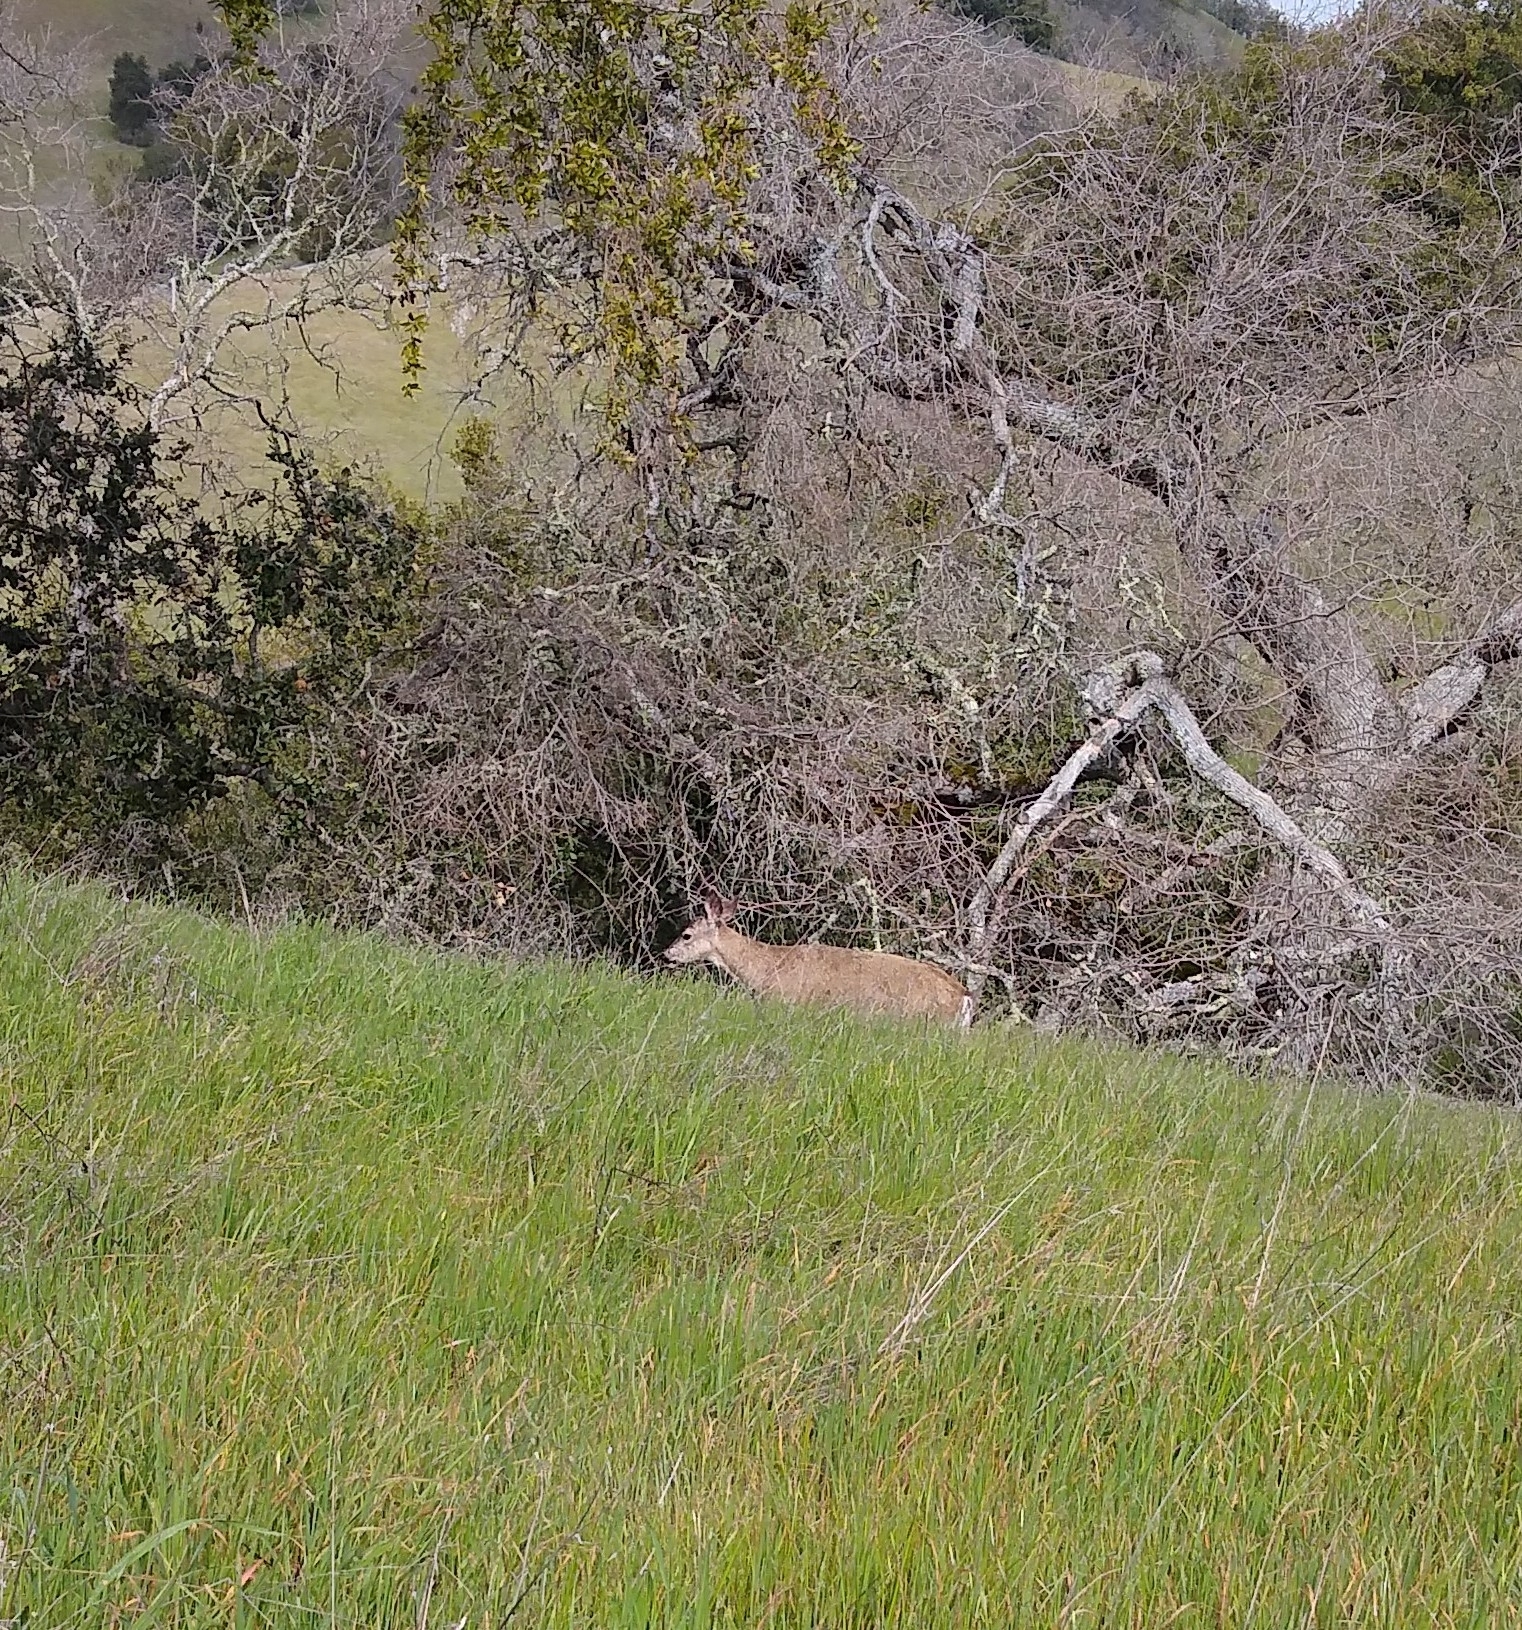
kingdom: Animalia
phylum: Chordata
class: Mammalia
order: Artiodactyla
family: Cervidae
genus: Odocoileus
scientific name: Odocoileus hemionus
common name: Mule deer
